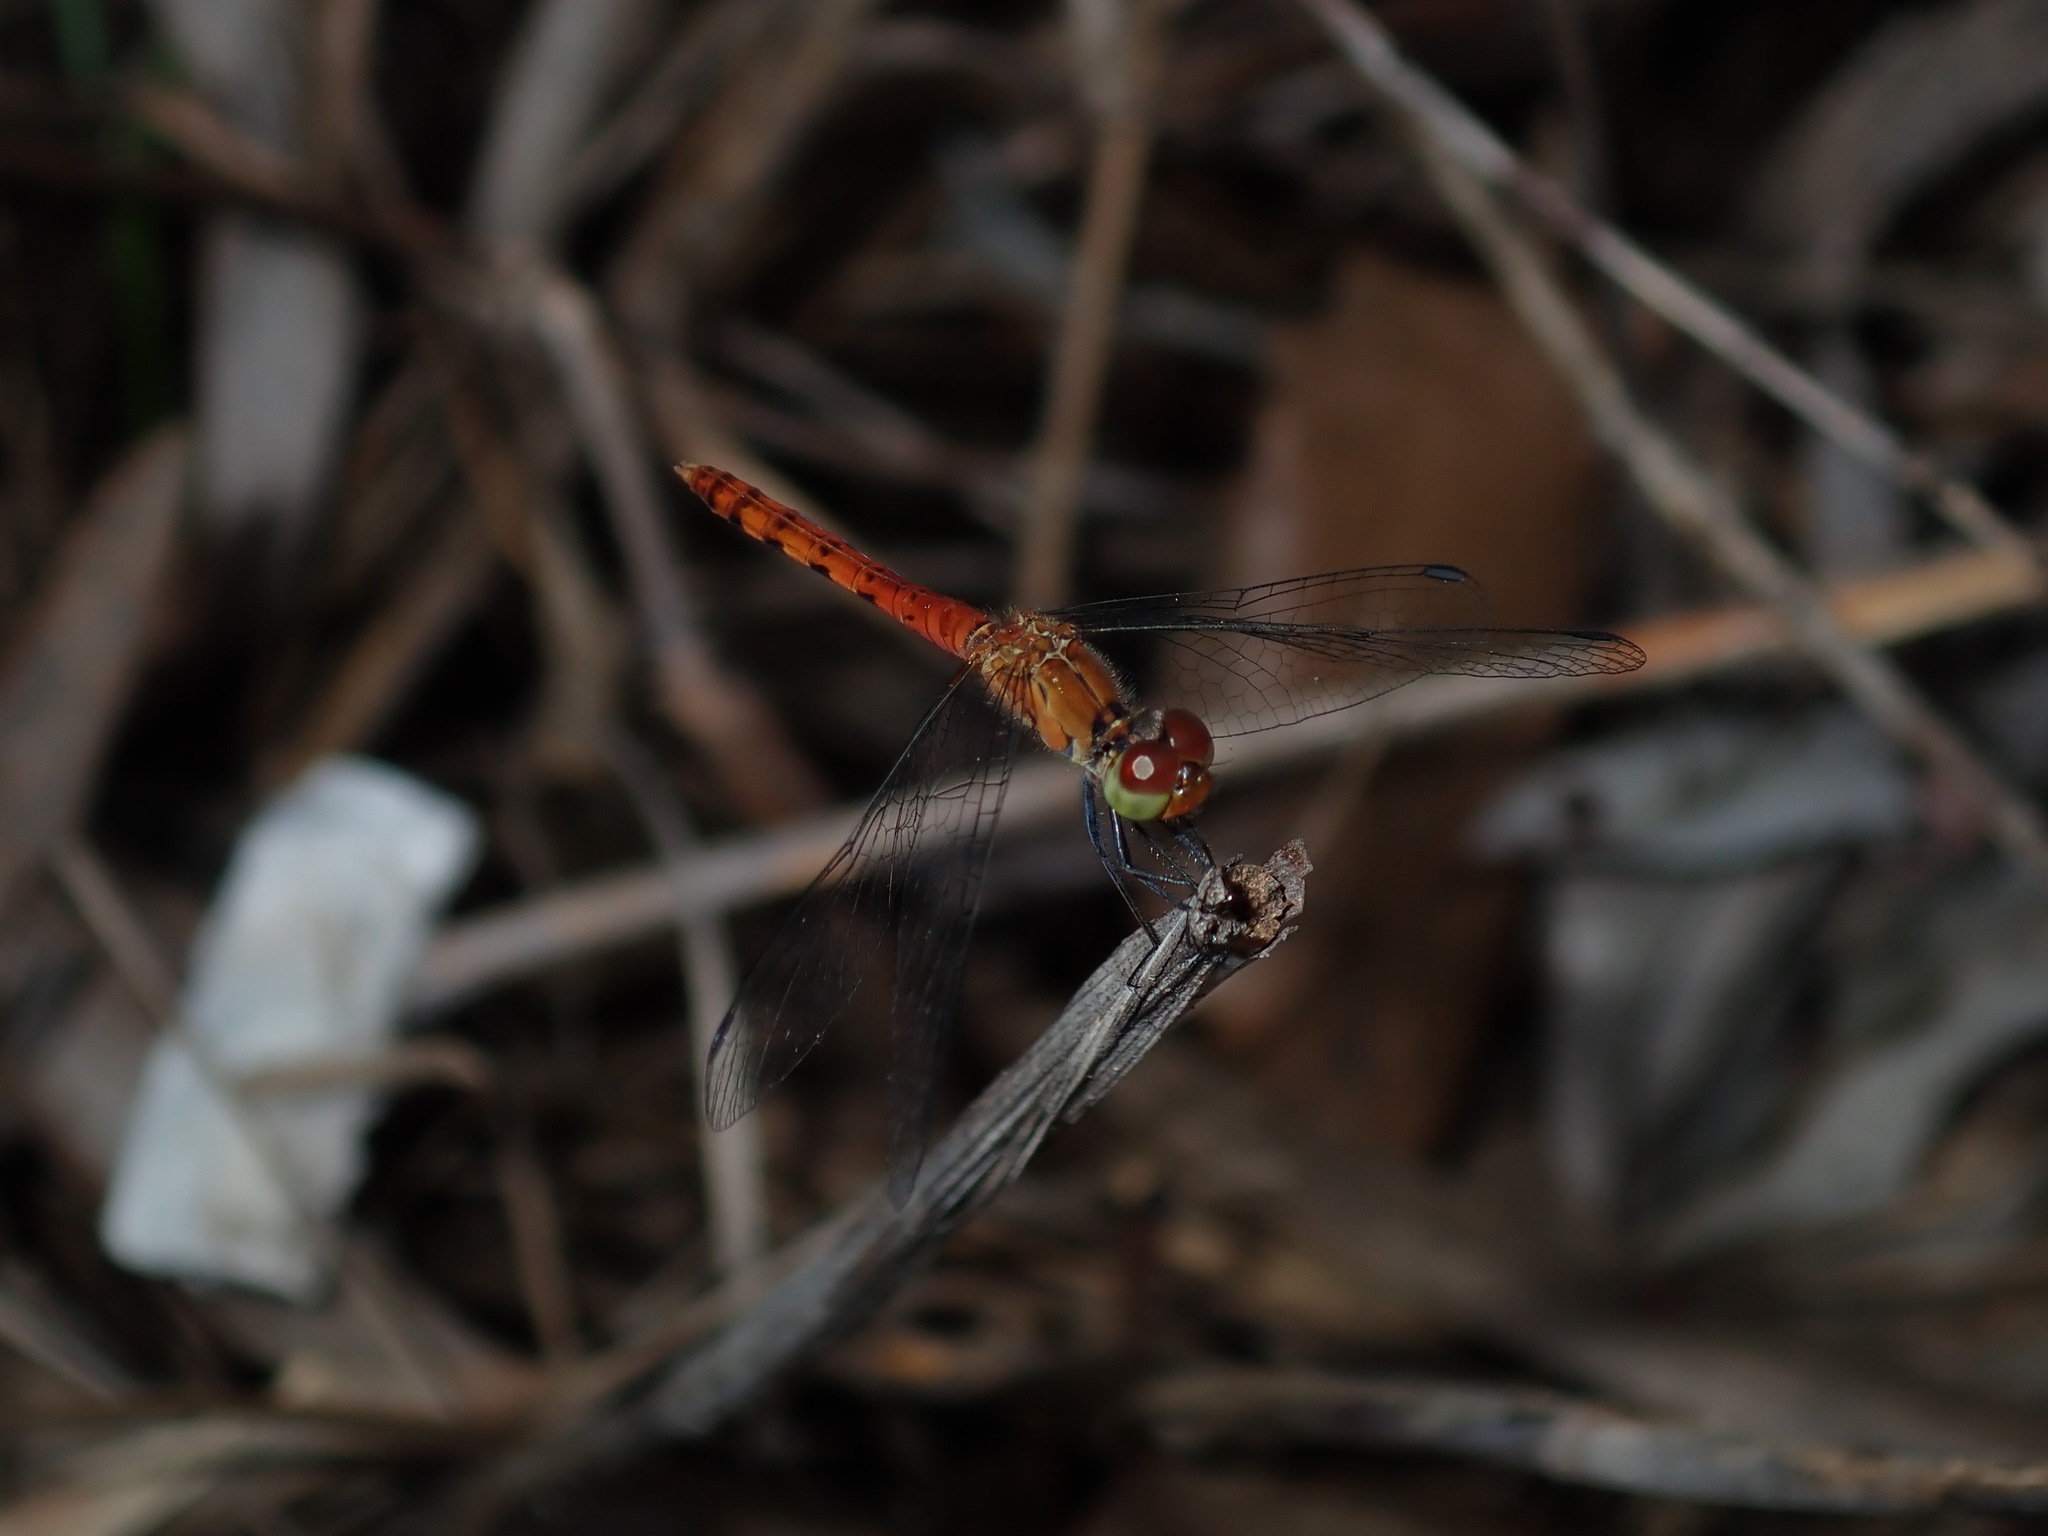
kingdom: Animalia
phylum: Arthropoda
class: Insecta
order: Odonata
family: Libellulidae
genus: Nannodiplax
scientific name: Nannodiplax rubra
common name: Pygmy percher
